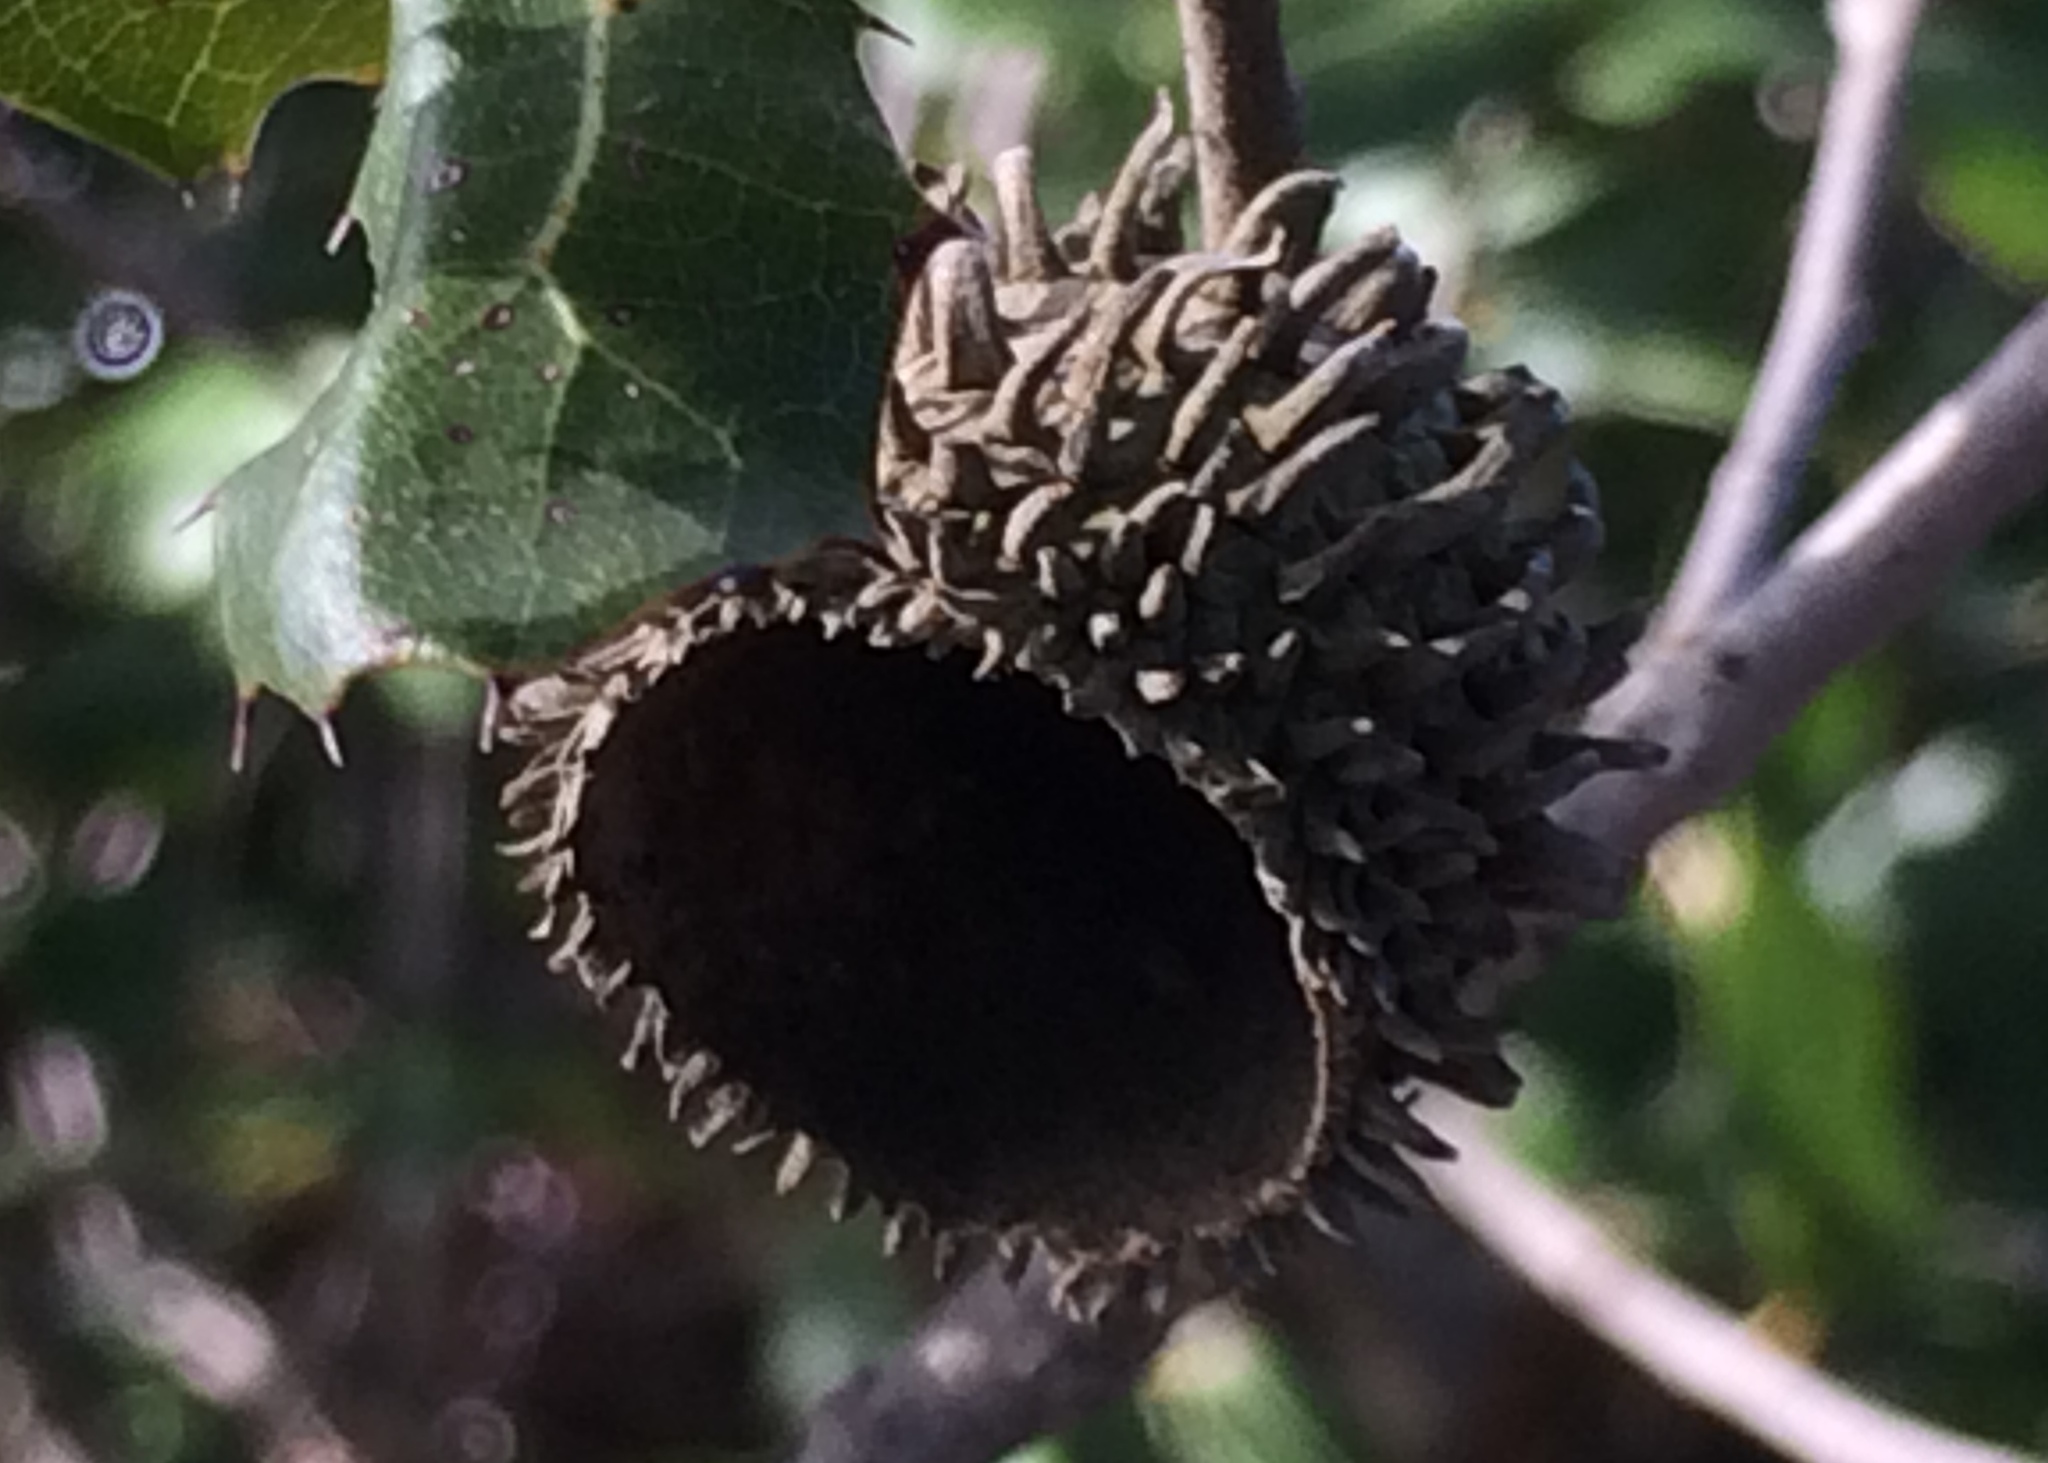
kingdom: Plantae
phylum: Tracheophyta
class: Magnoliopsida
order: Fagales
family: Fagaceae
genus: Quercus
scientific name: Quercus coccifera
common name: Kermes oak
